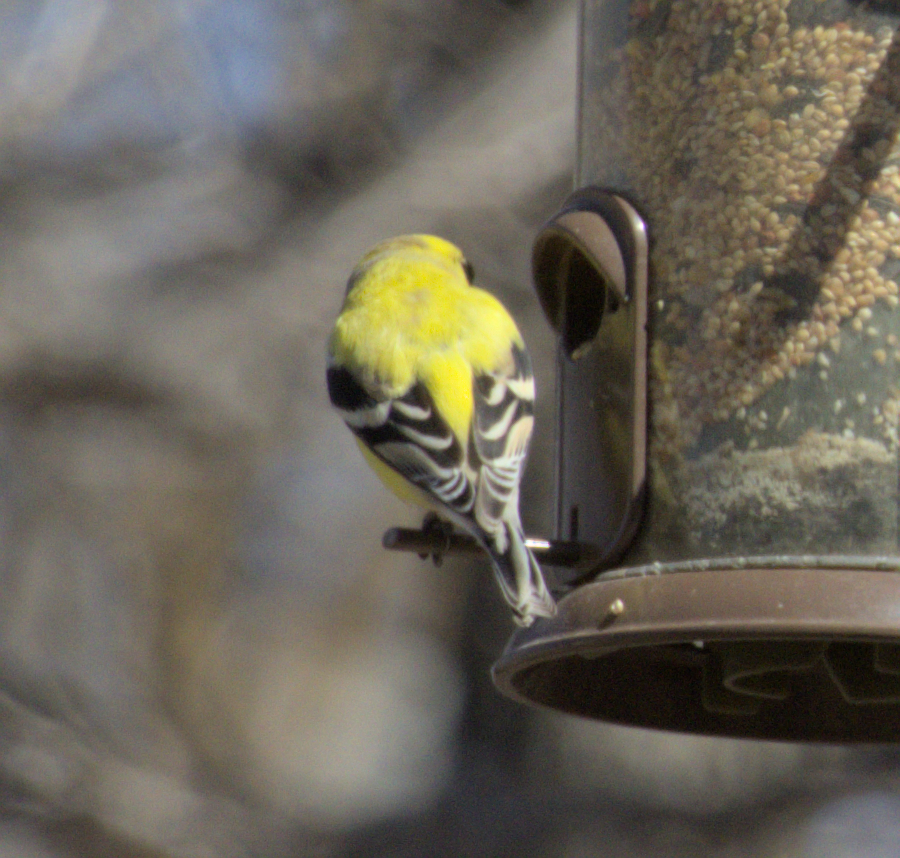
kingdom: Animalia
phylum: Chordata
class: Aves
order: Passeriformes
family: Fringillidae
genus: Spinus
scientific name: Spinus tristis
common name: American goldfinch
